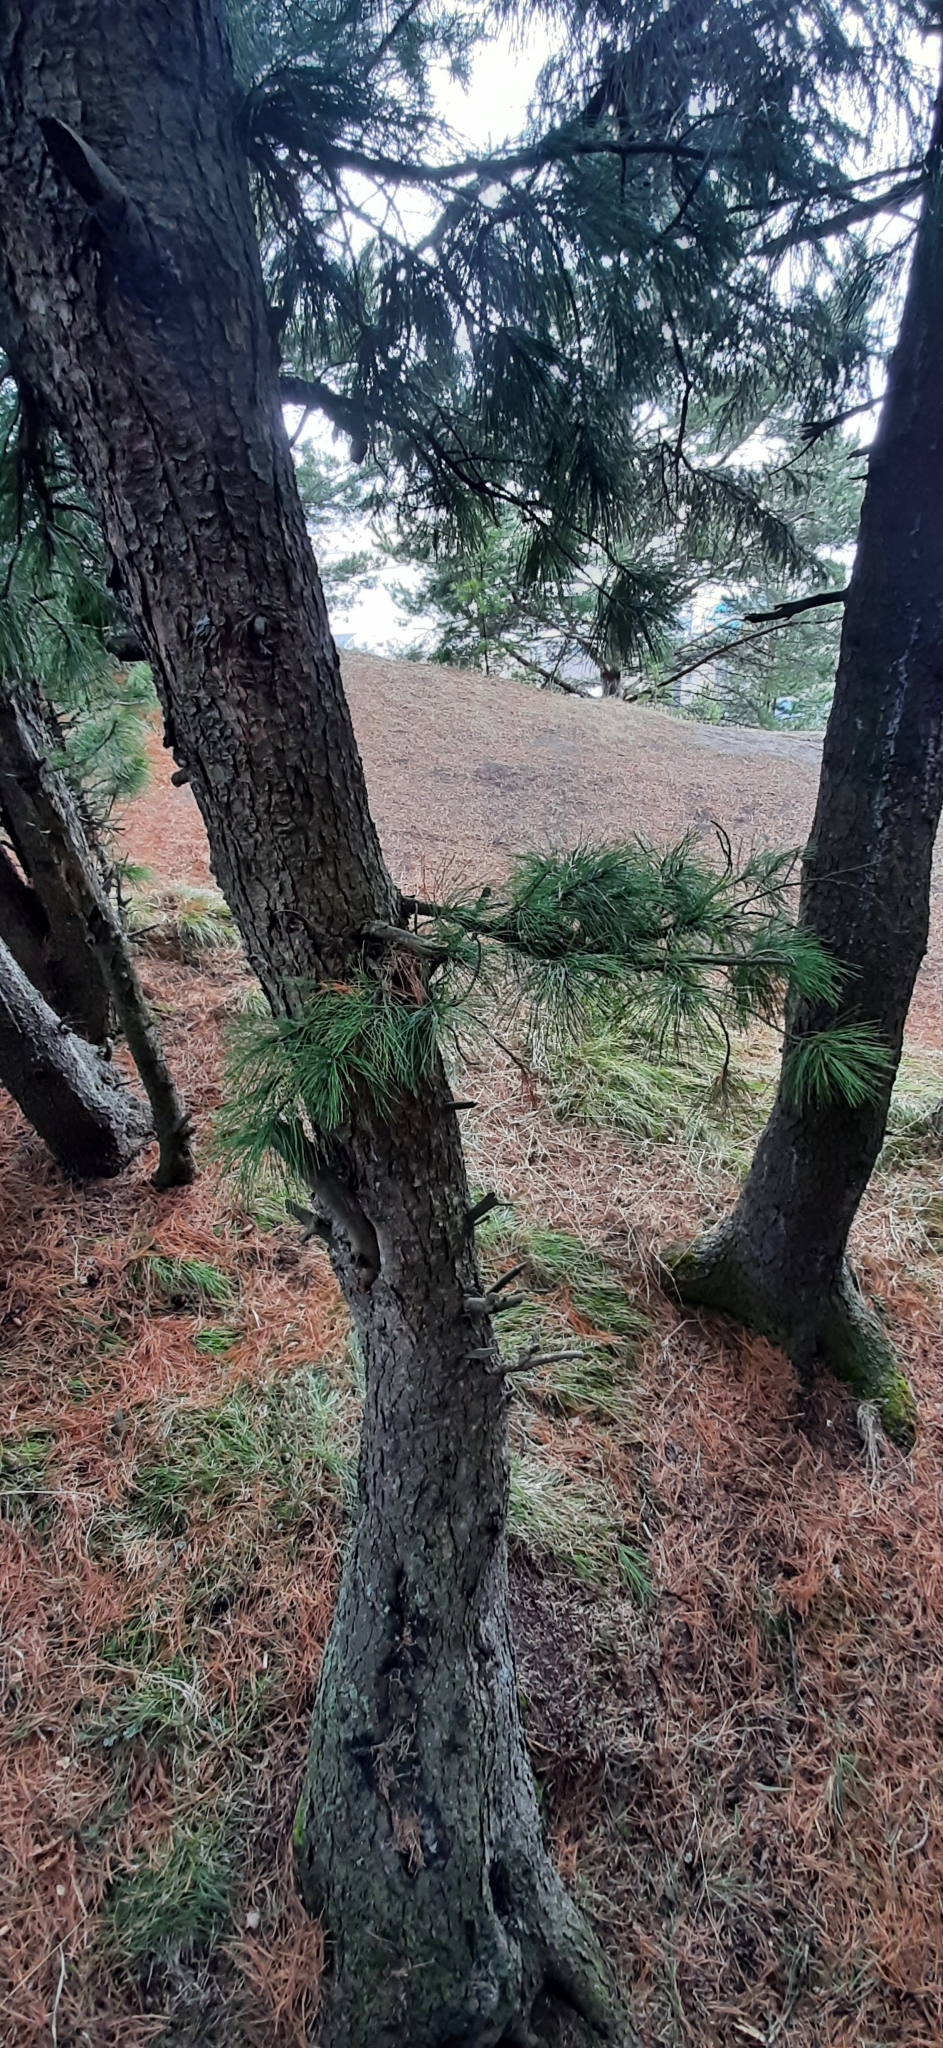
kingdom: Plantae
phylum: Tracheophyta
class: Pinopsida
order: Pinales
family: Pinaceae
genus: Pinus
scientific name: Pinus sibirica
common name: Siberian pine
